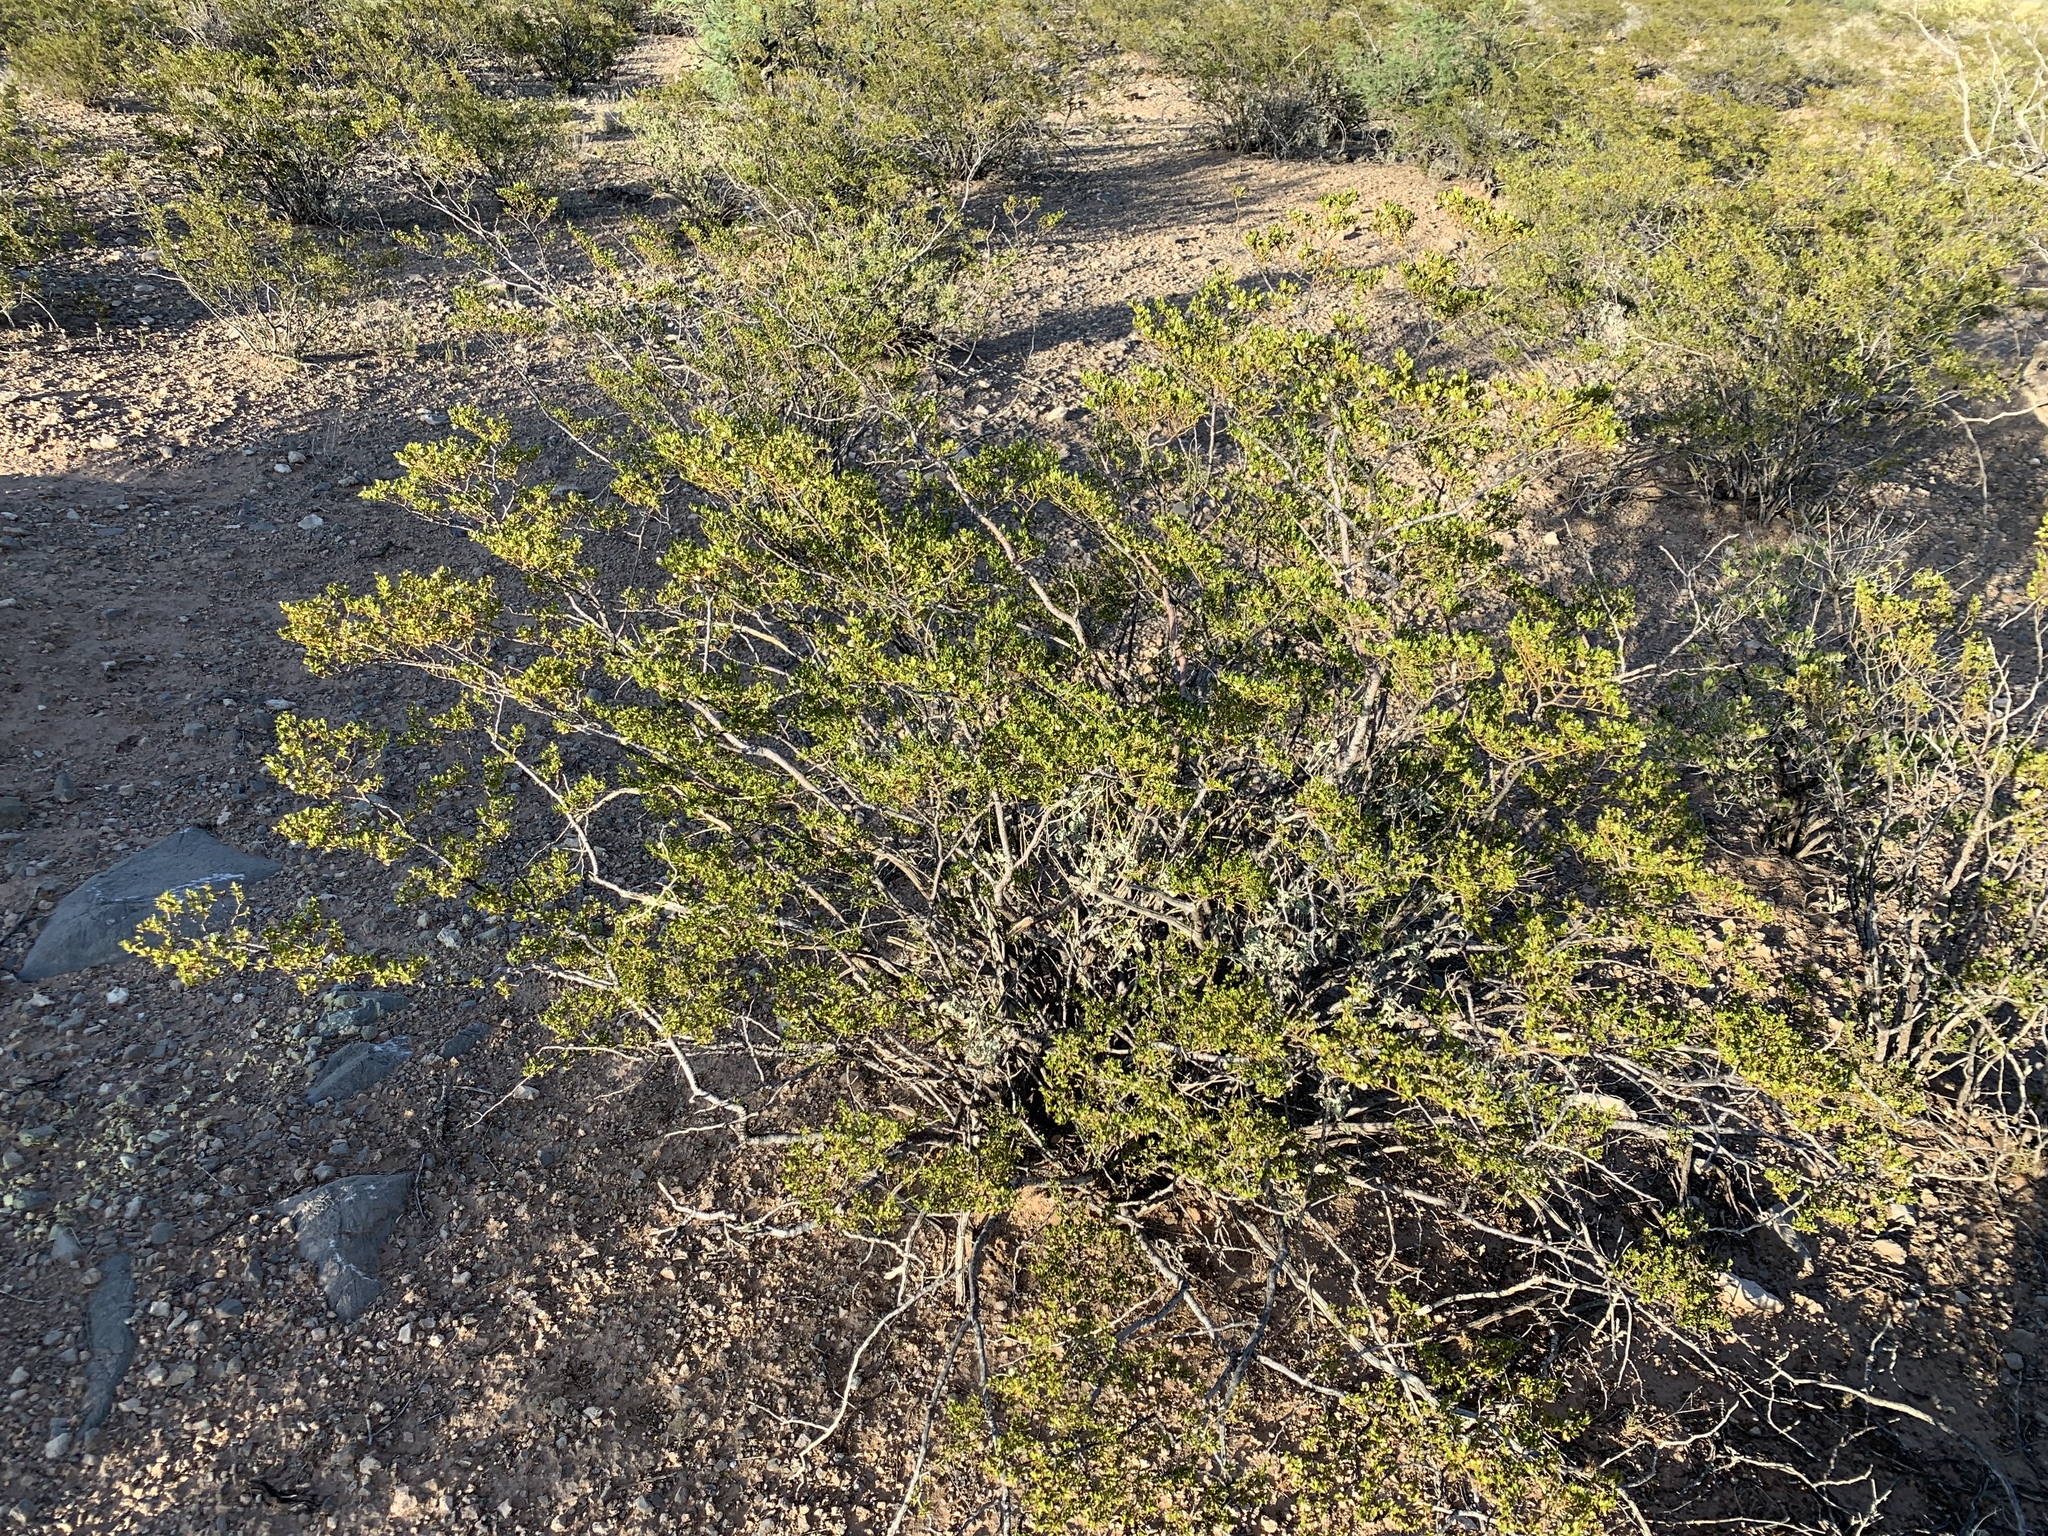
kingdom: Plantae
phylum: Tracheophyta
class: Magnoliopsida
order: Zygophyllales
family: Zygophyllaceae
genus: Larrea
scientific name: Larrea tridentata
